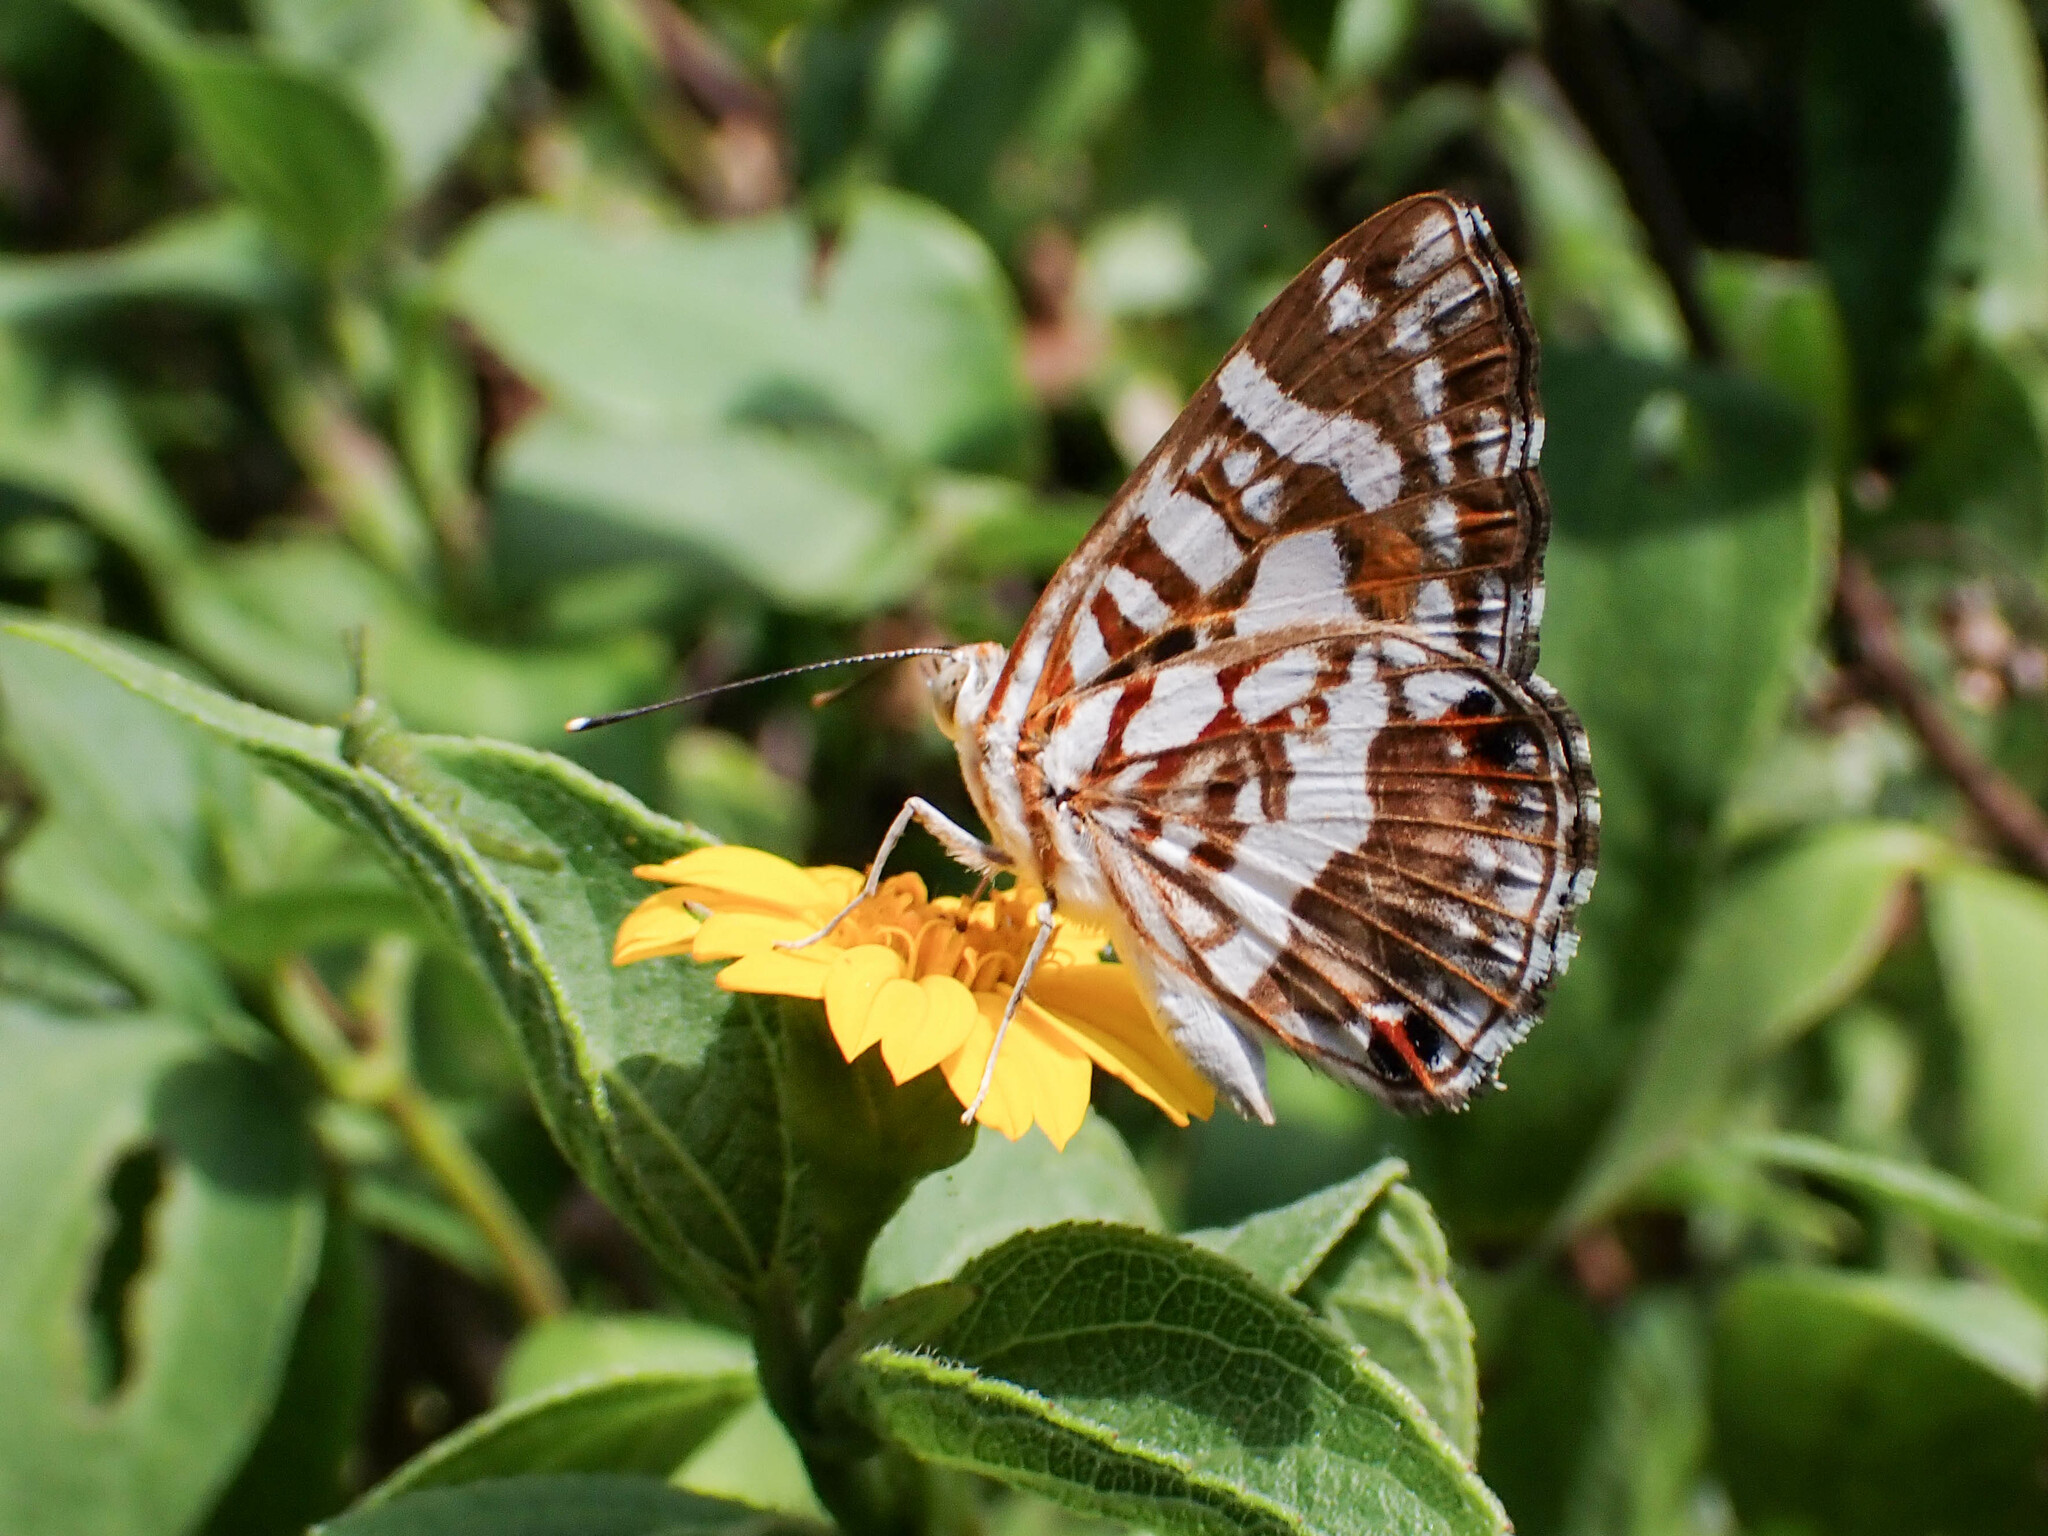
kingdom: Animalia
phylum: Arthropoda
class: Insecta
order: Lepidoptera
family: Riodinidae
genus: Ariconias
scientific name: Ariconias
